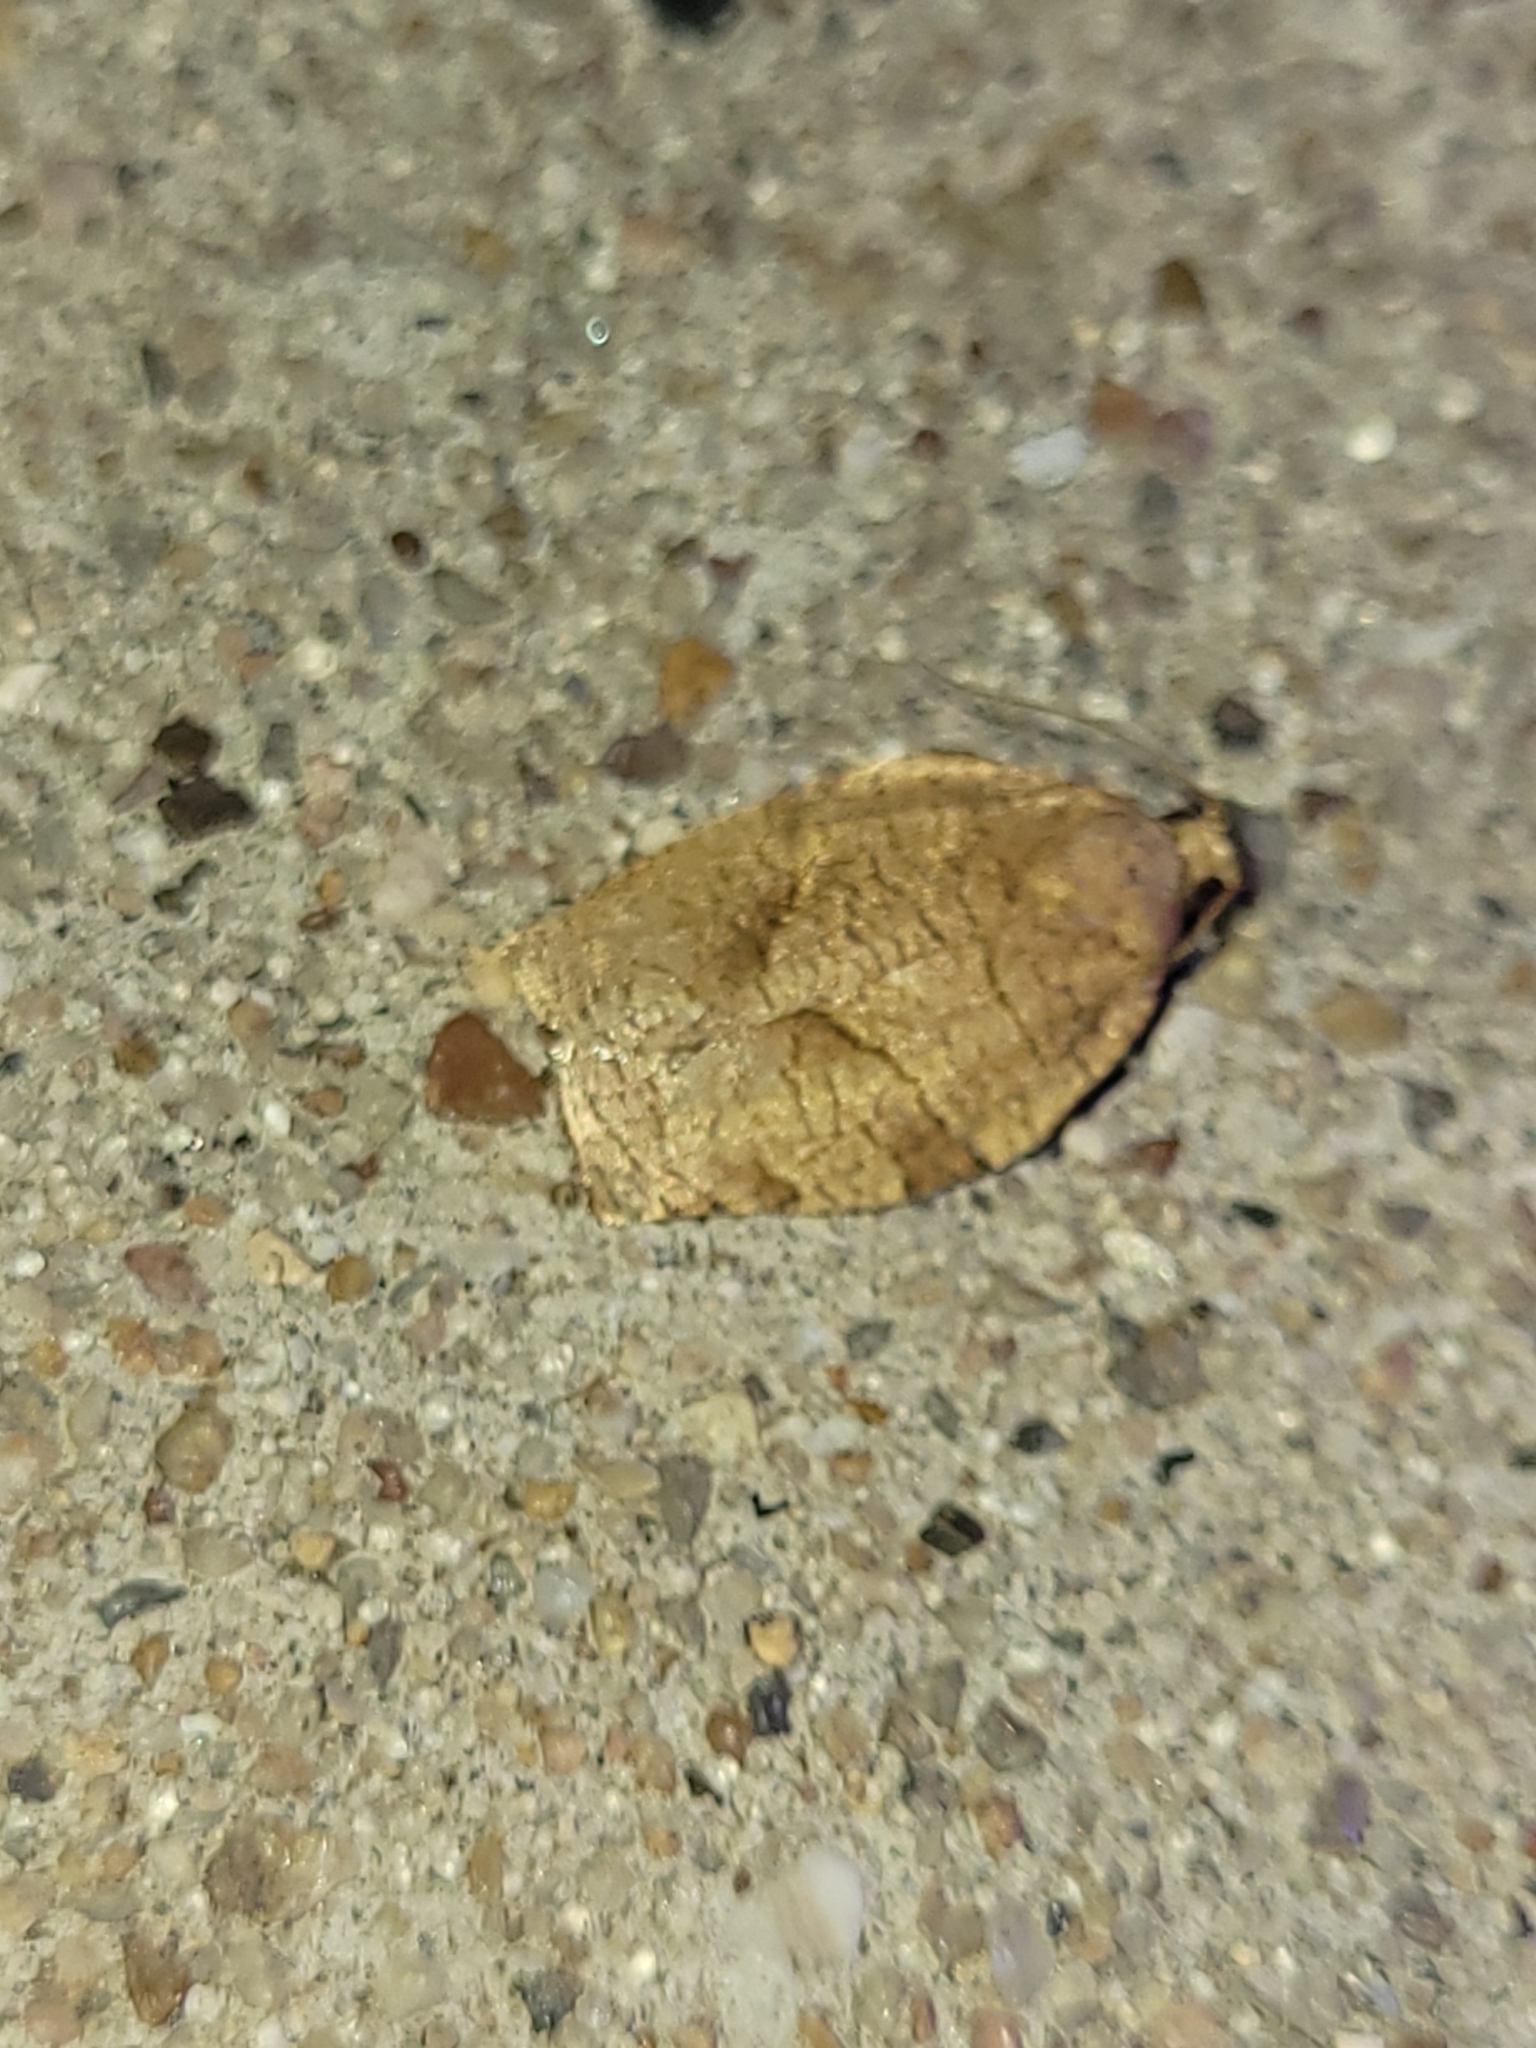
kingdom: Animalia
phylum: Arthropoda
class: Insecta
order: Lepidoptera
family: Tortricidae
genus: Choristoneura
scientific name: Choristoneura rosaceana
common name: Oblique-banded leafroller moth
